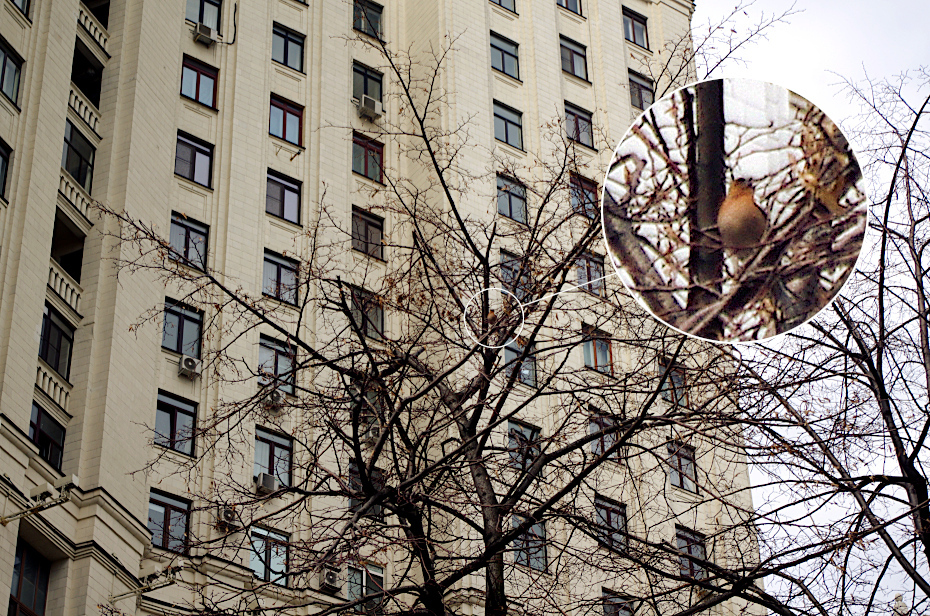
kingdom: Animalia
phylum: Chordata
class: Aves
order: Passeriformes
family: Fringillidae
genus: Fringilla
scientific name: Fringilla coelebs
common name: Common chaffinch
